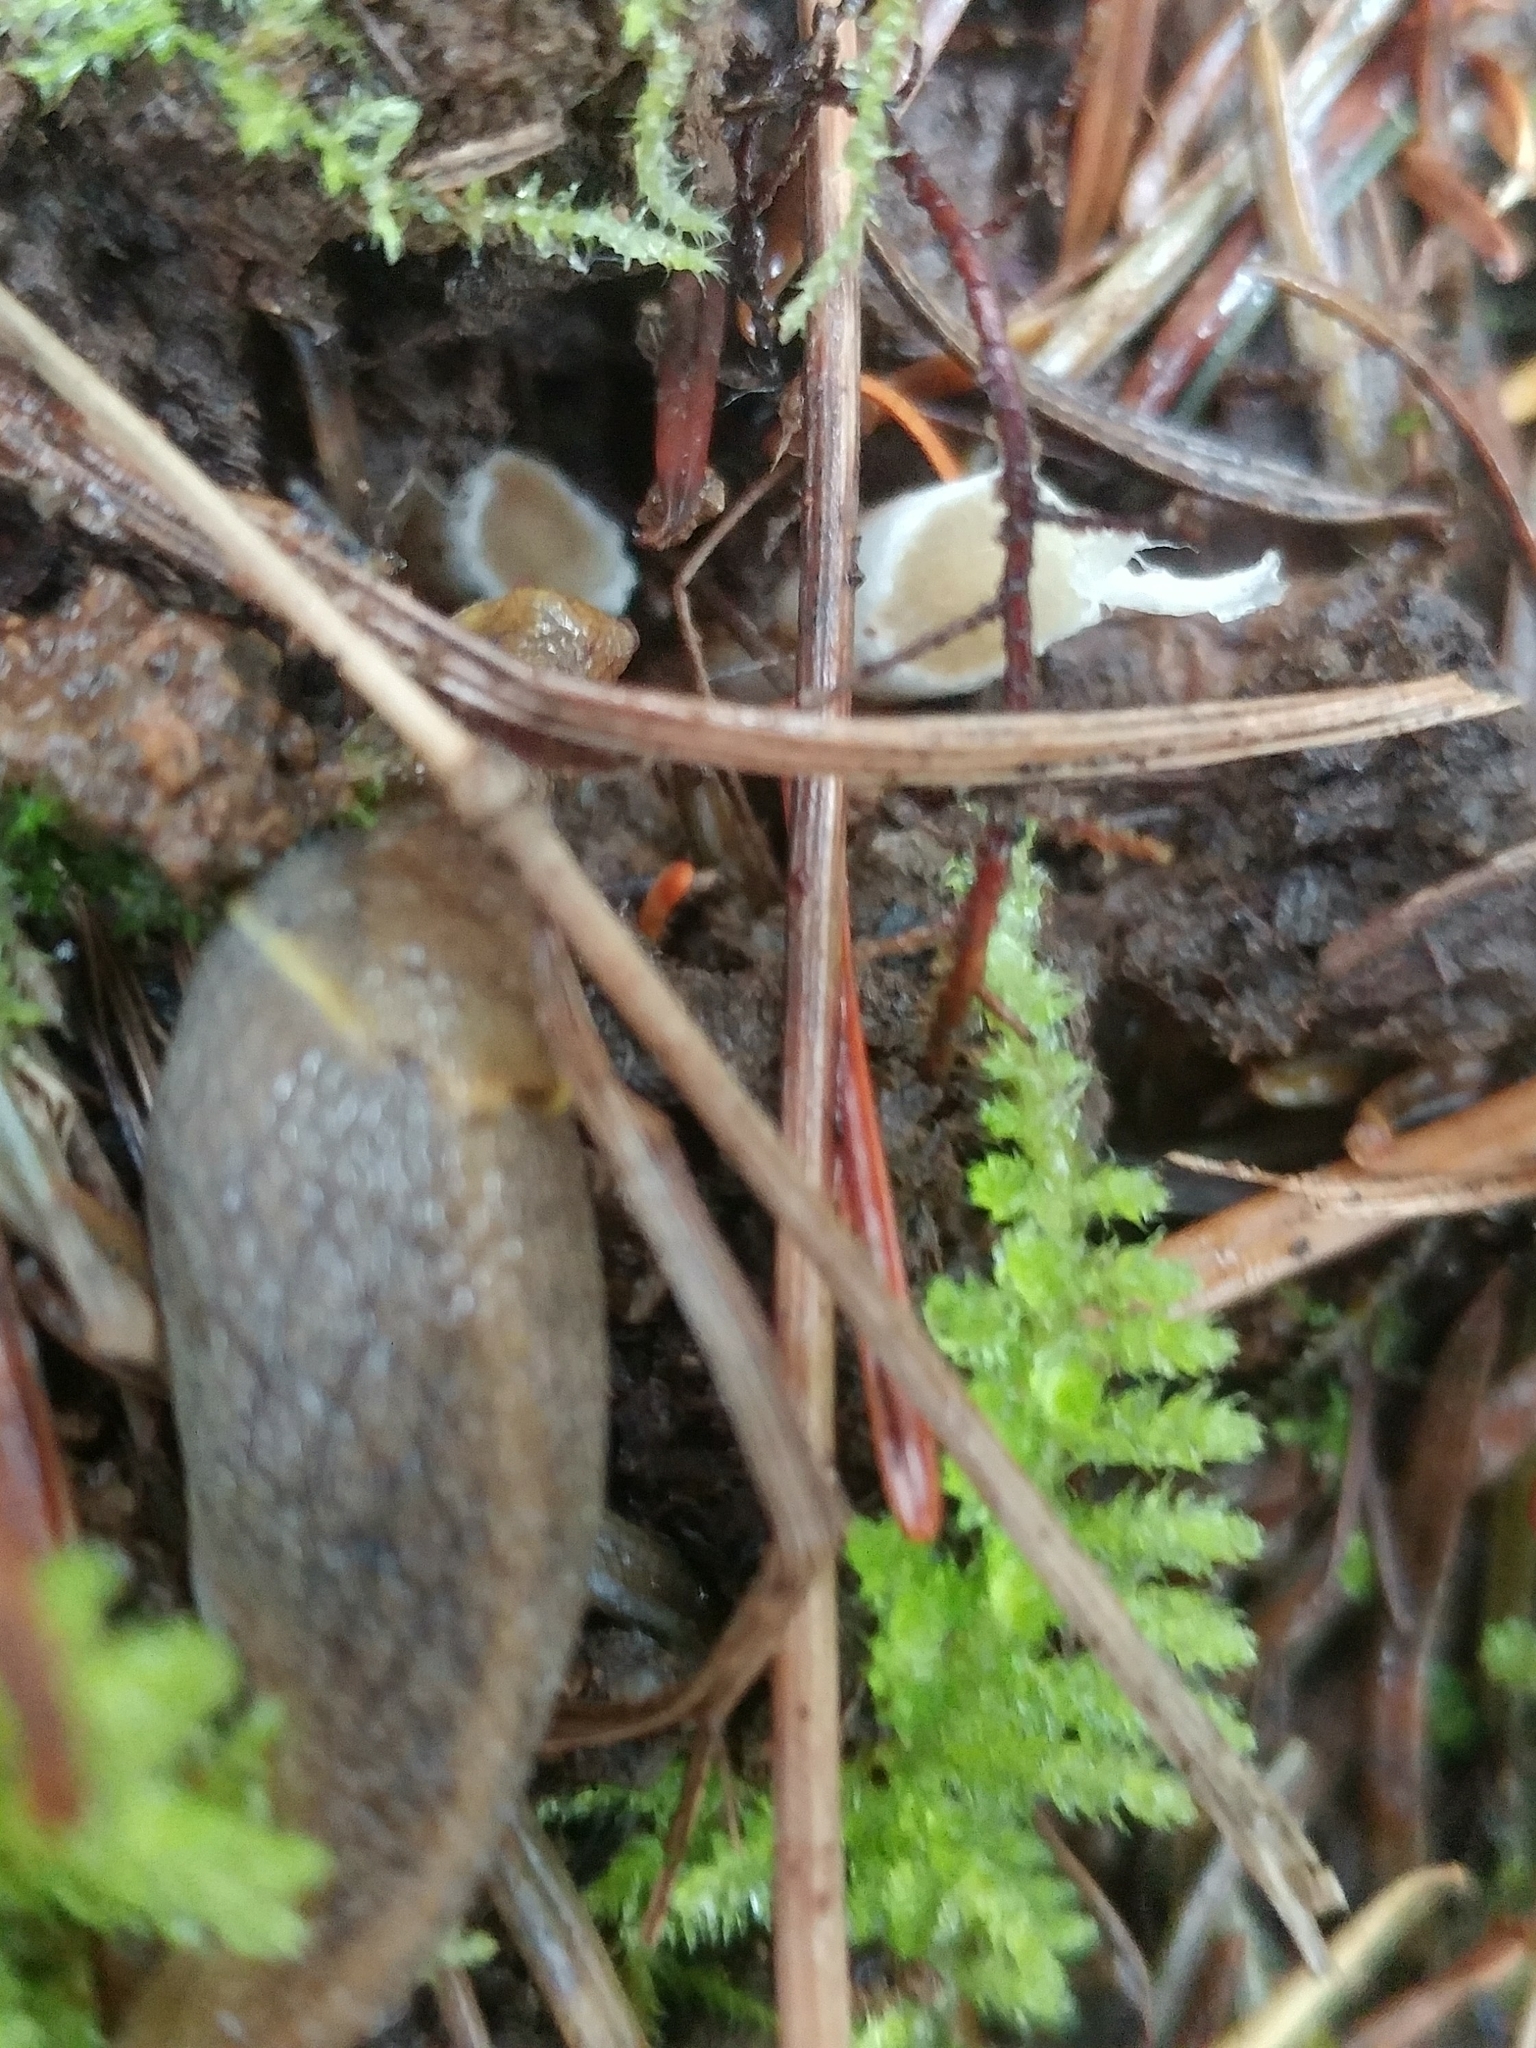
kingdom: Animalia
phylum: Mollusca
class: Gastropoda
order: Stylommatophora
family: Ariolimacidae
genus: Prophysaon
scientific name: Prophysaon foliolatum
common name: Yellow-bordered taildropper
